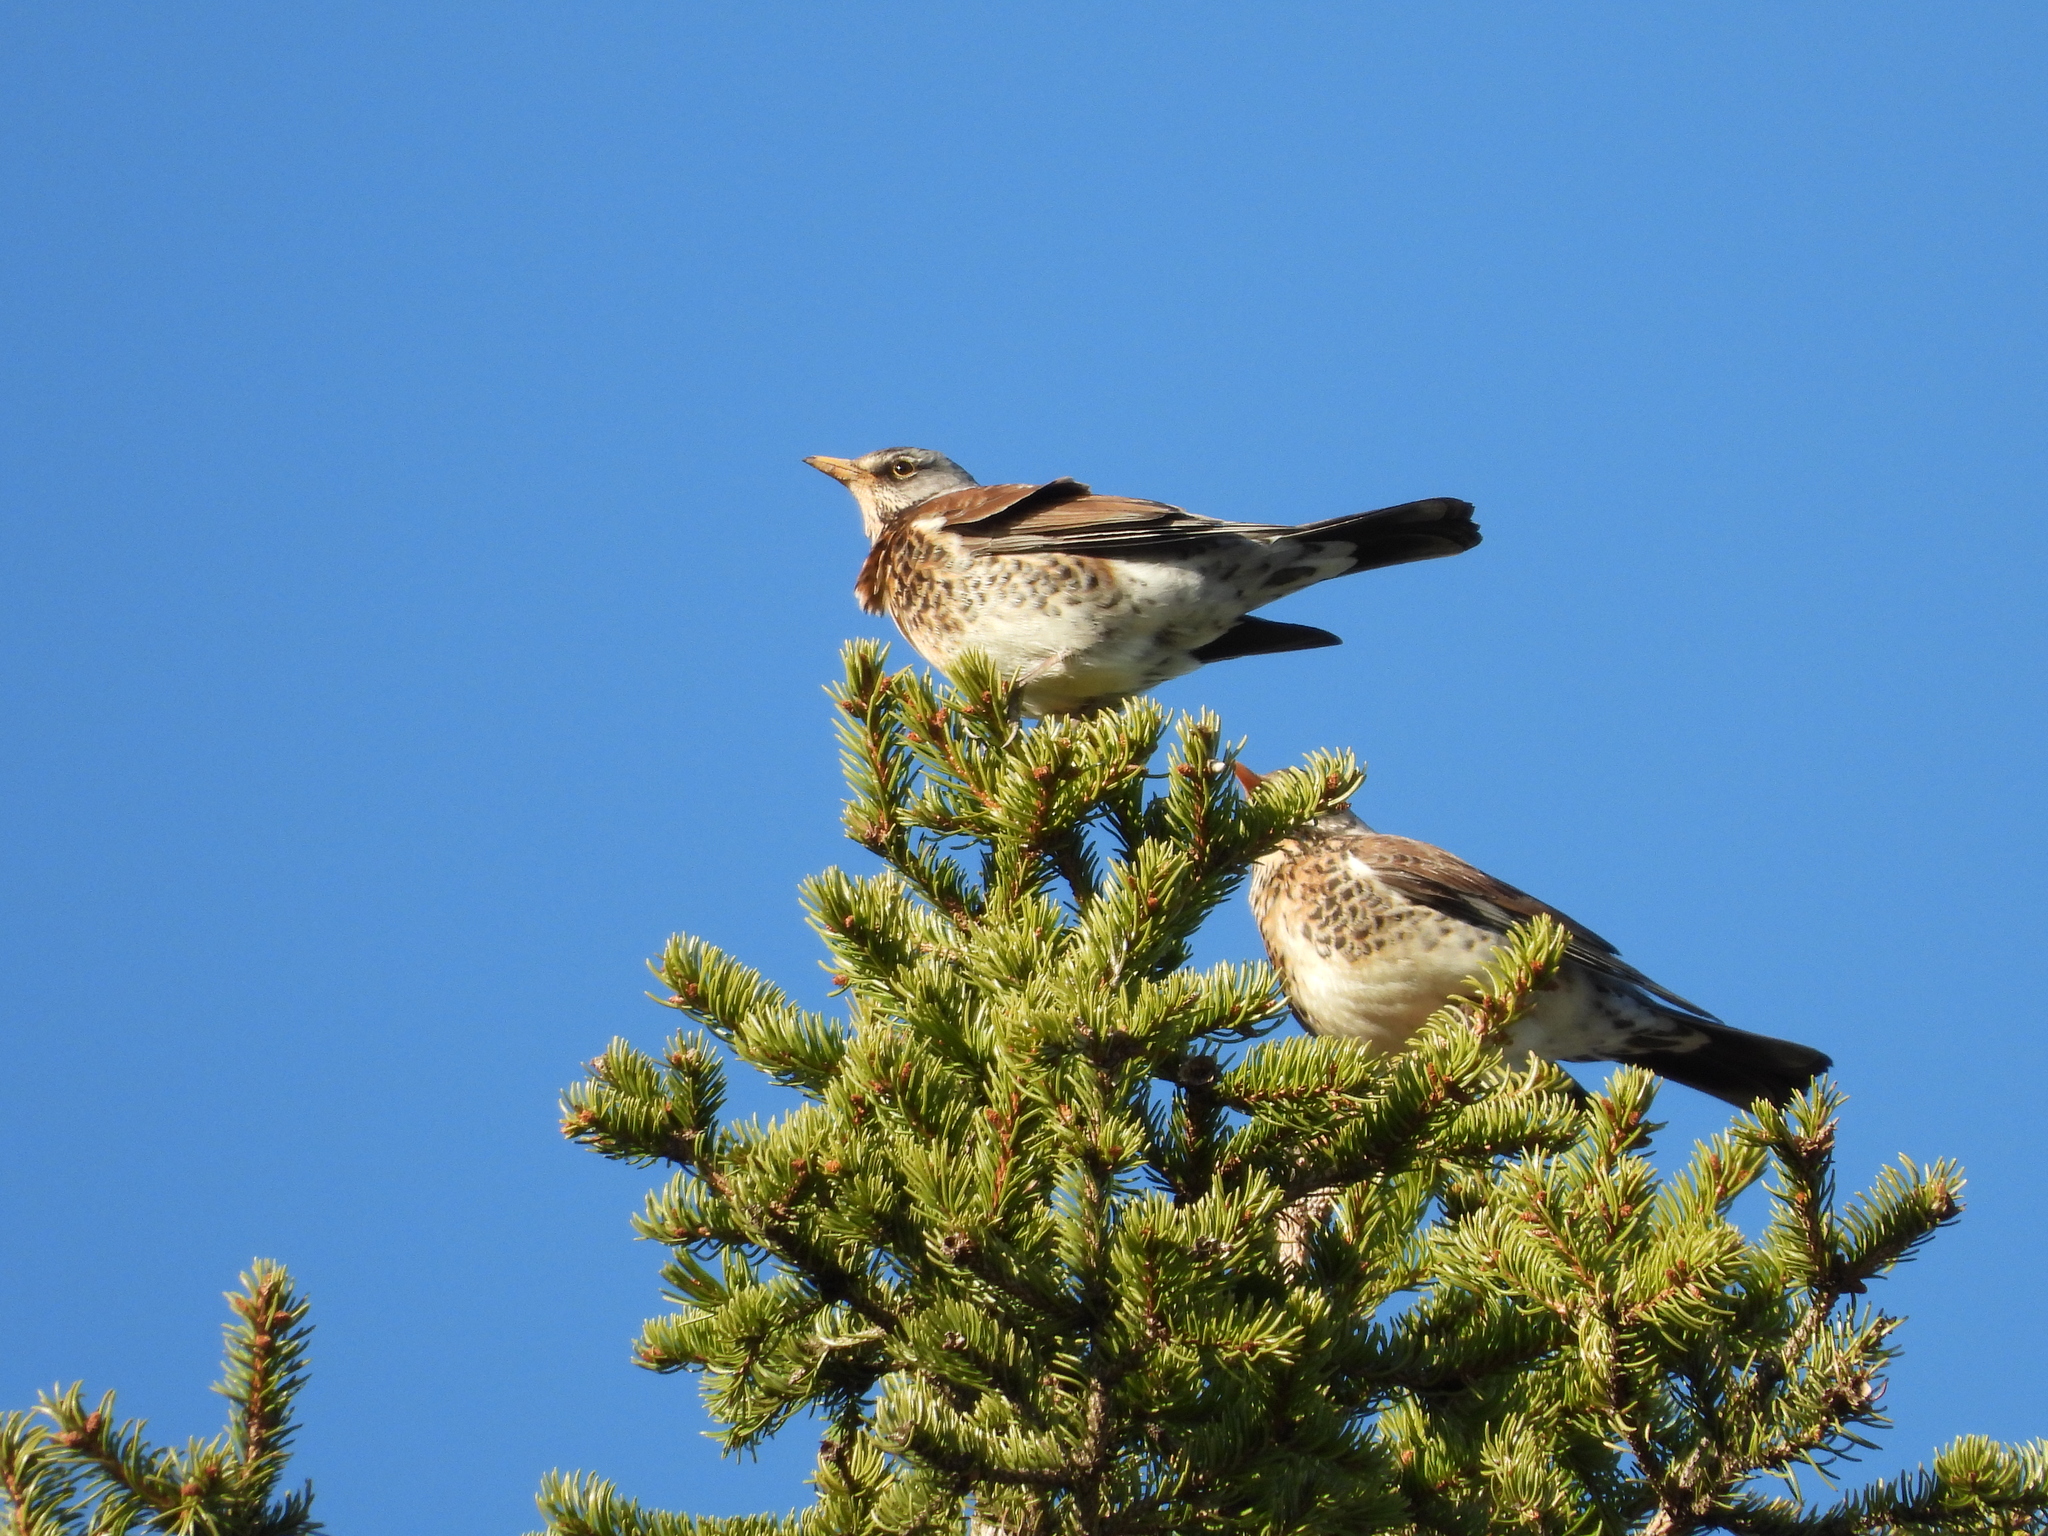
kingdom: Animalia
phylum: Chordata
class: Aves
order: Passeriformes
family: Turdidae
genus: Turdus
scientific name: Turdus pilaris
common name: Fieldfare
